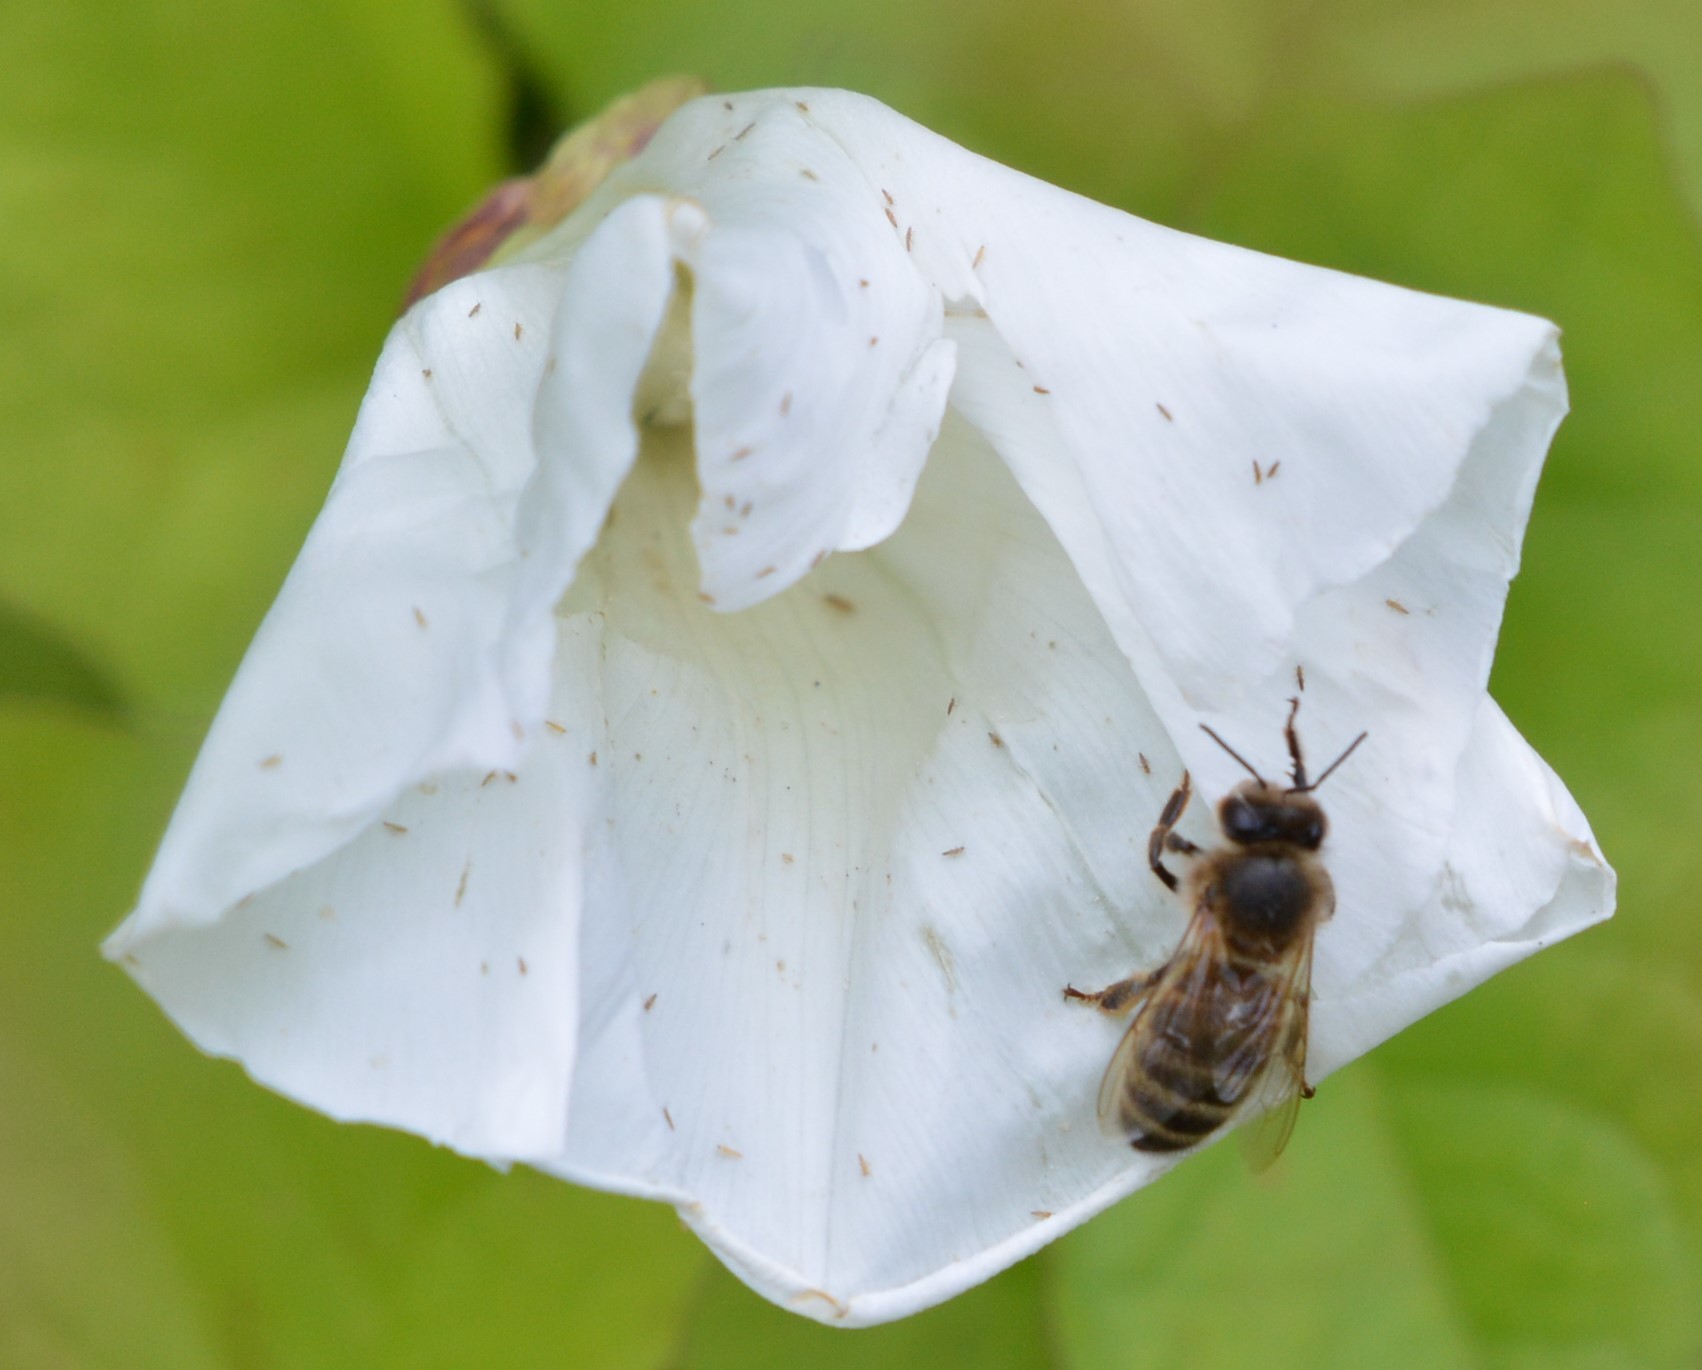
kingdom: Animalia
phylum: Arthropoda
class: Insecta
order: Hymenoptera
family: Apidae
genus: Apis
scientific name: Apis mellifera
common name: Honey bee
